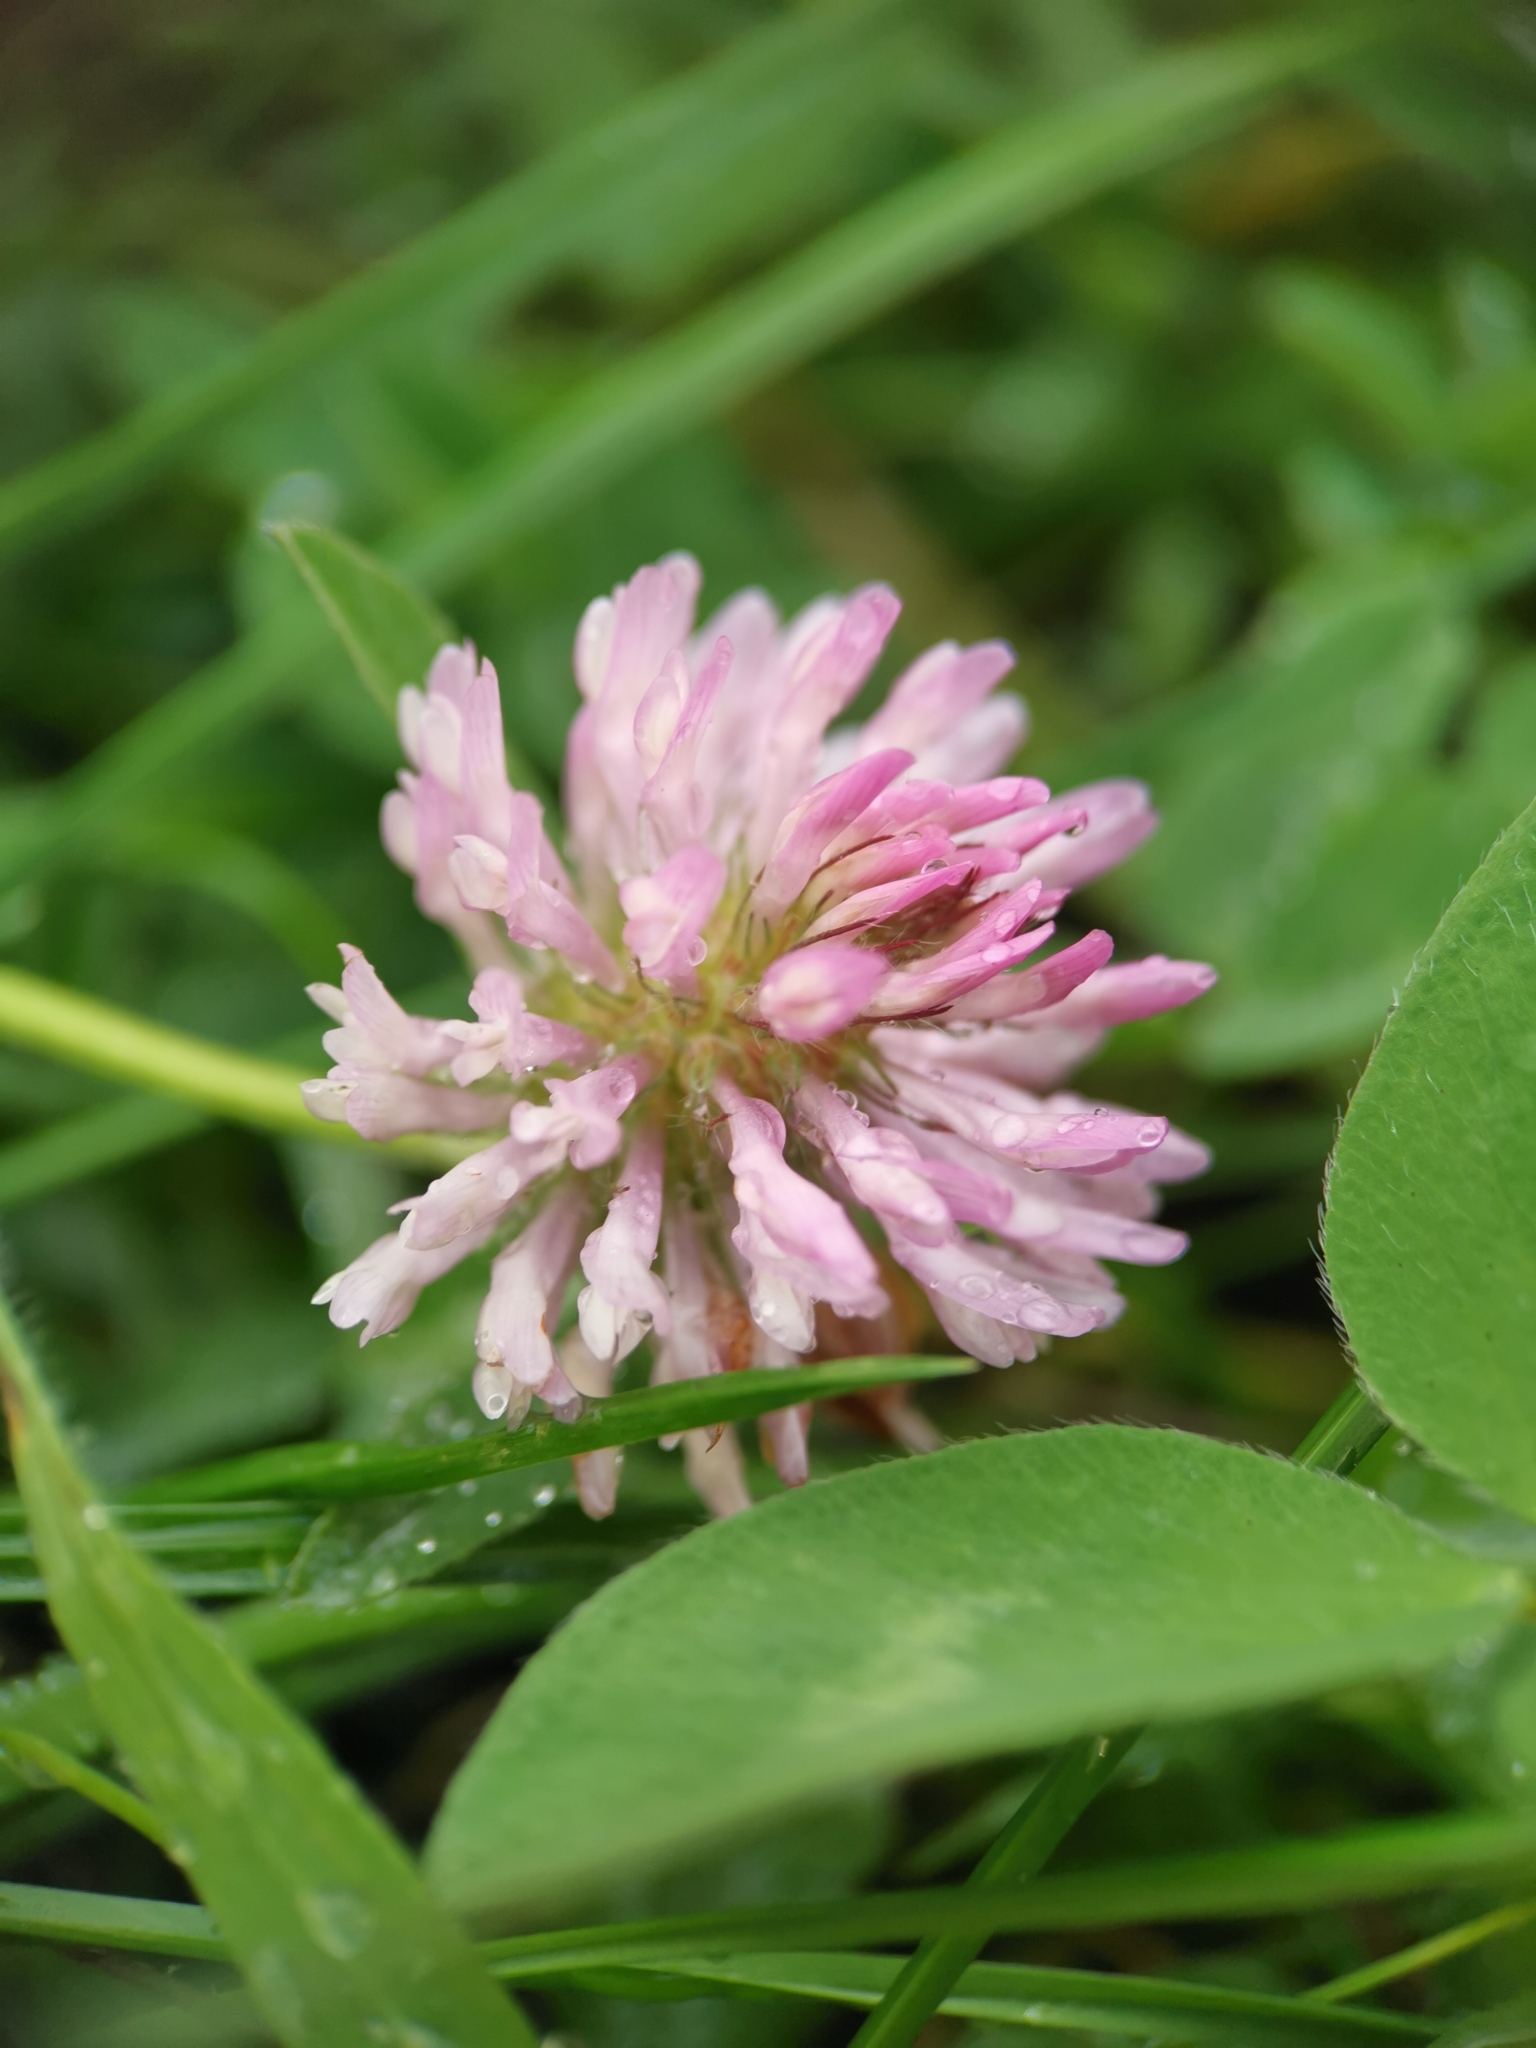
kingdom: Plantae
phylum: Tracheophyta
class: Magnoliopsida
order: Fabales
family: Fabaceae
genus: Trifolium
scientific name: Trifolium pratense
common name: Red clover
